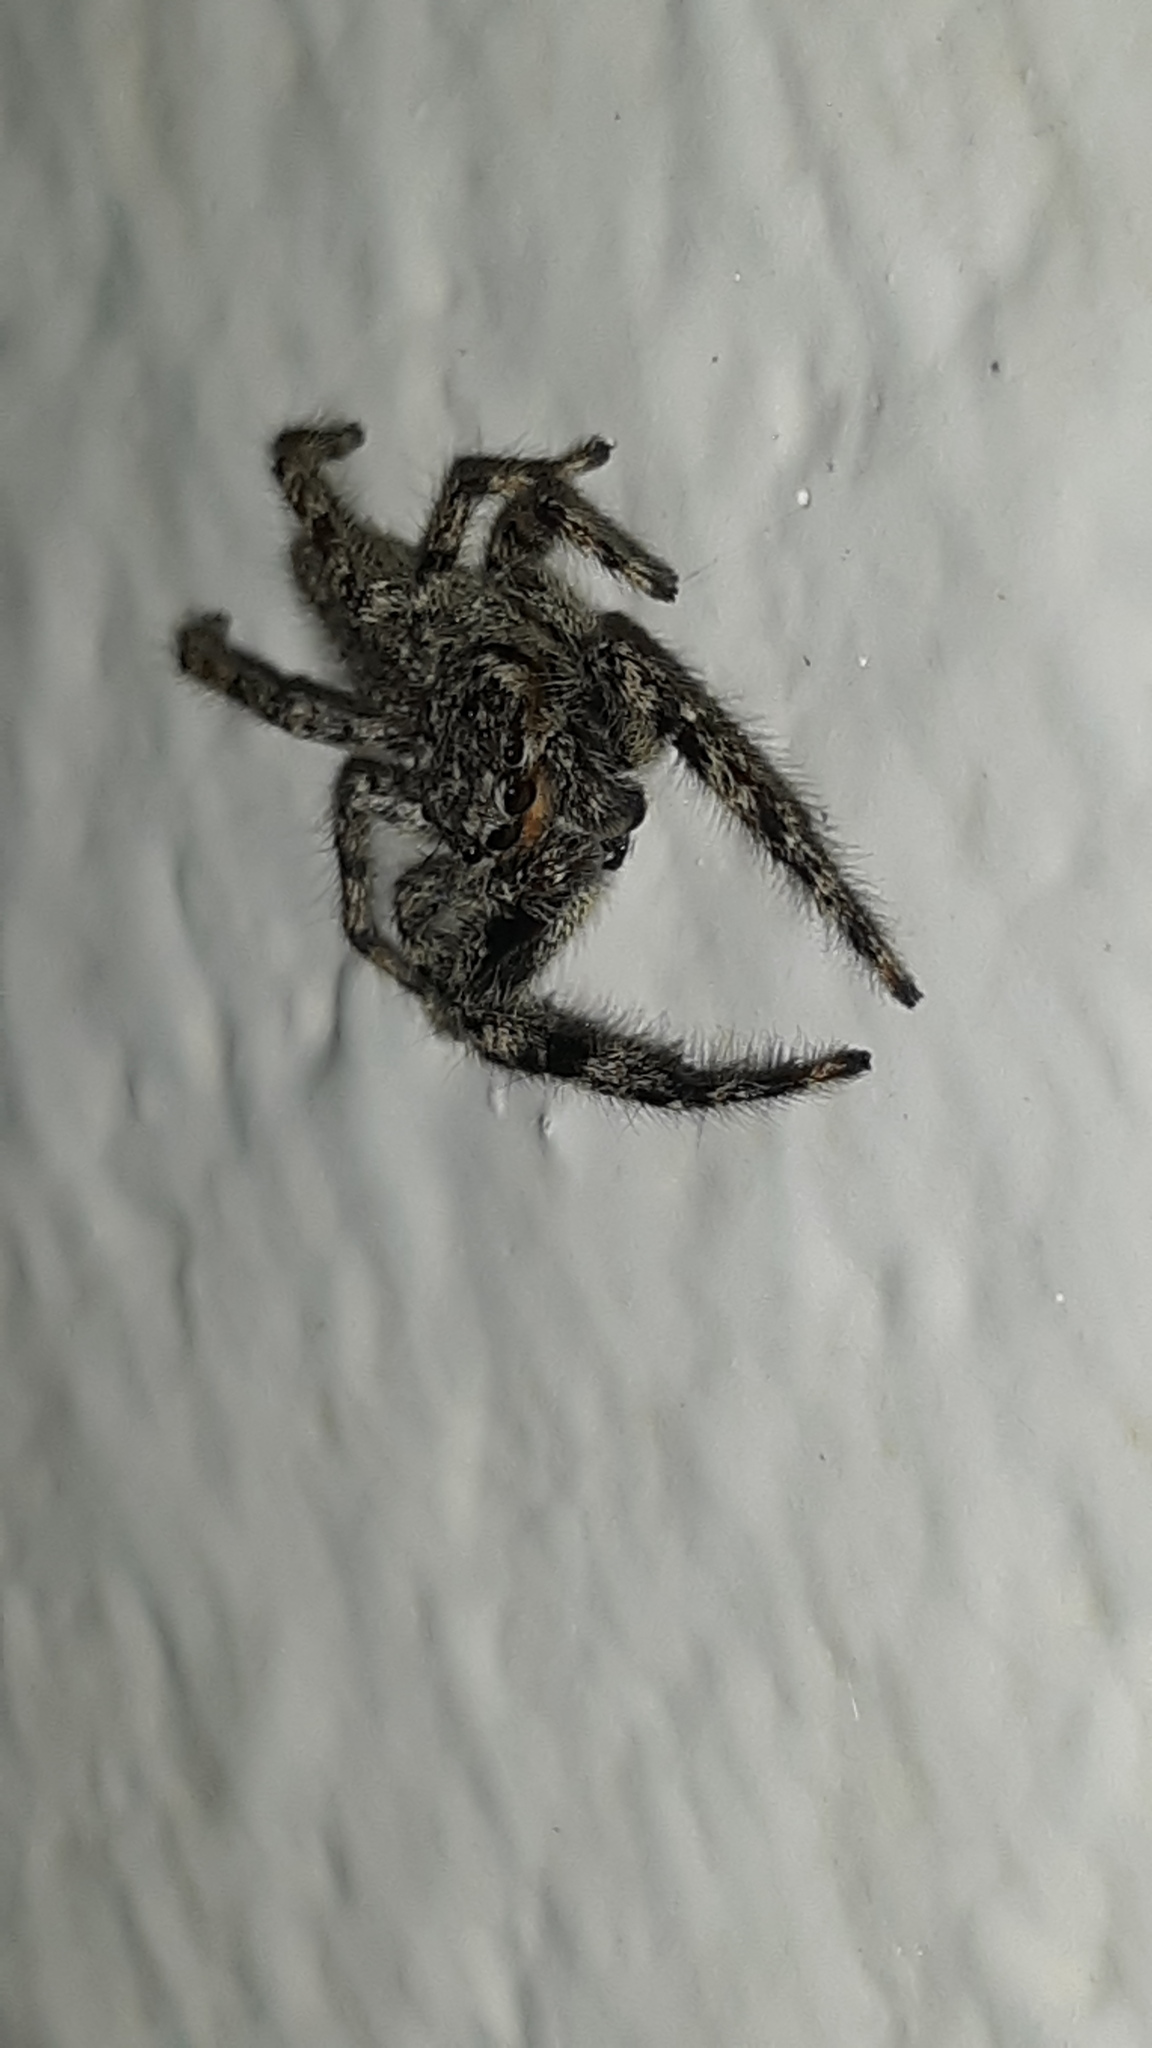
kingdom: Animalia
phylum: Arthropoda
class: Arachnida
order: Araneae
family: Salticidae
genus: Platycryptus
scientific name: Platycryptus undatus
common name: Tan jumping spider
